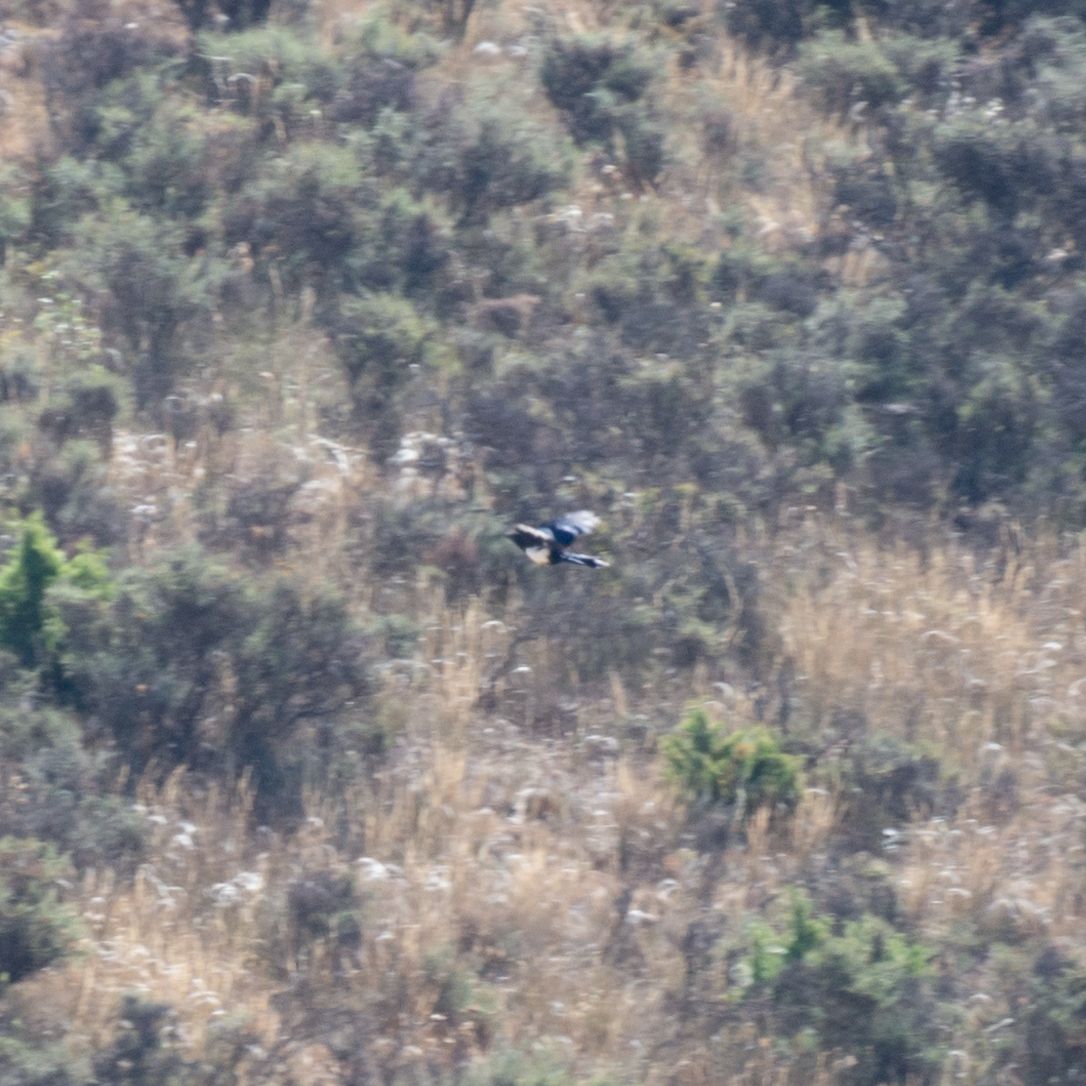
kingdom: Animalia
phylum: Chordata
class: Aves
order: Passeriformes
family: Corvidae
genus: Pica
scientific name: Pica pica
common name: Eurasian magpie
